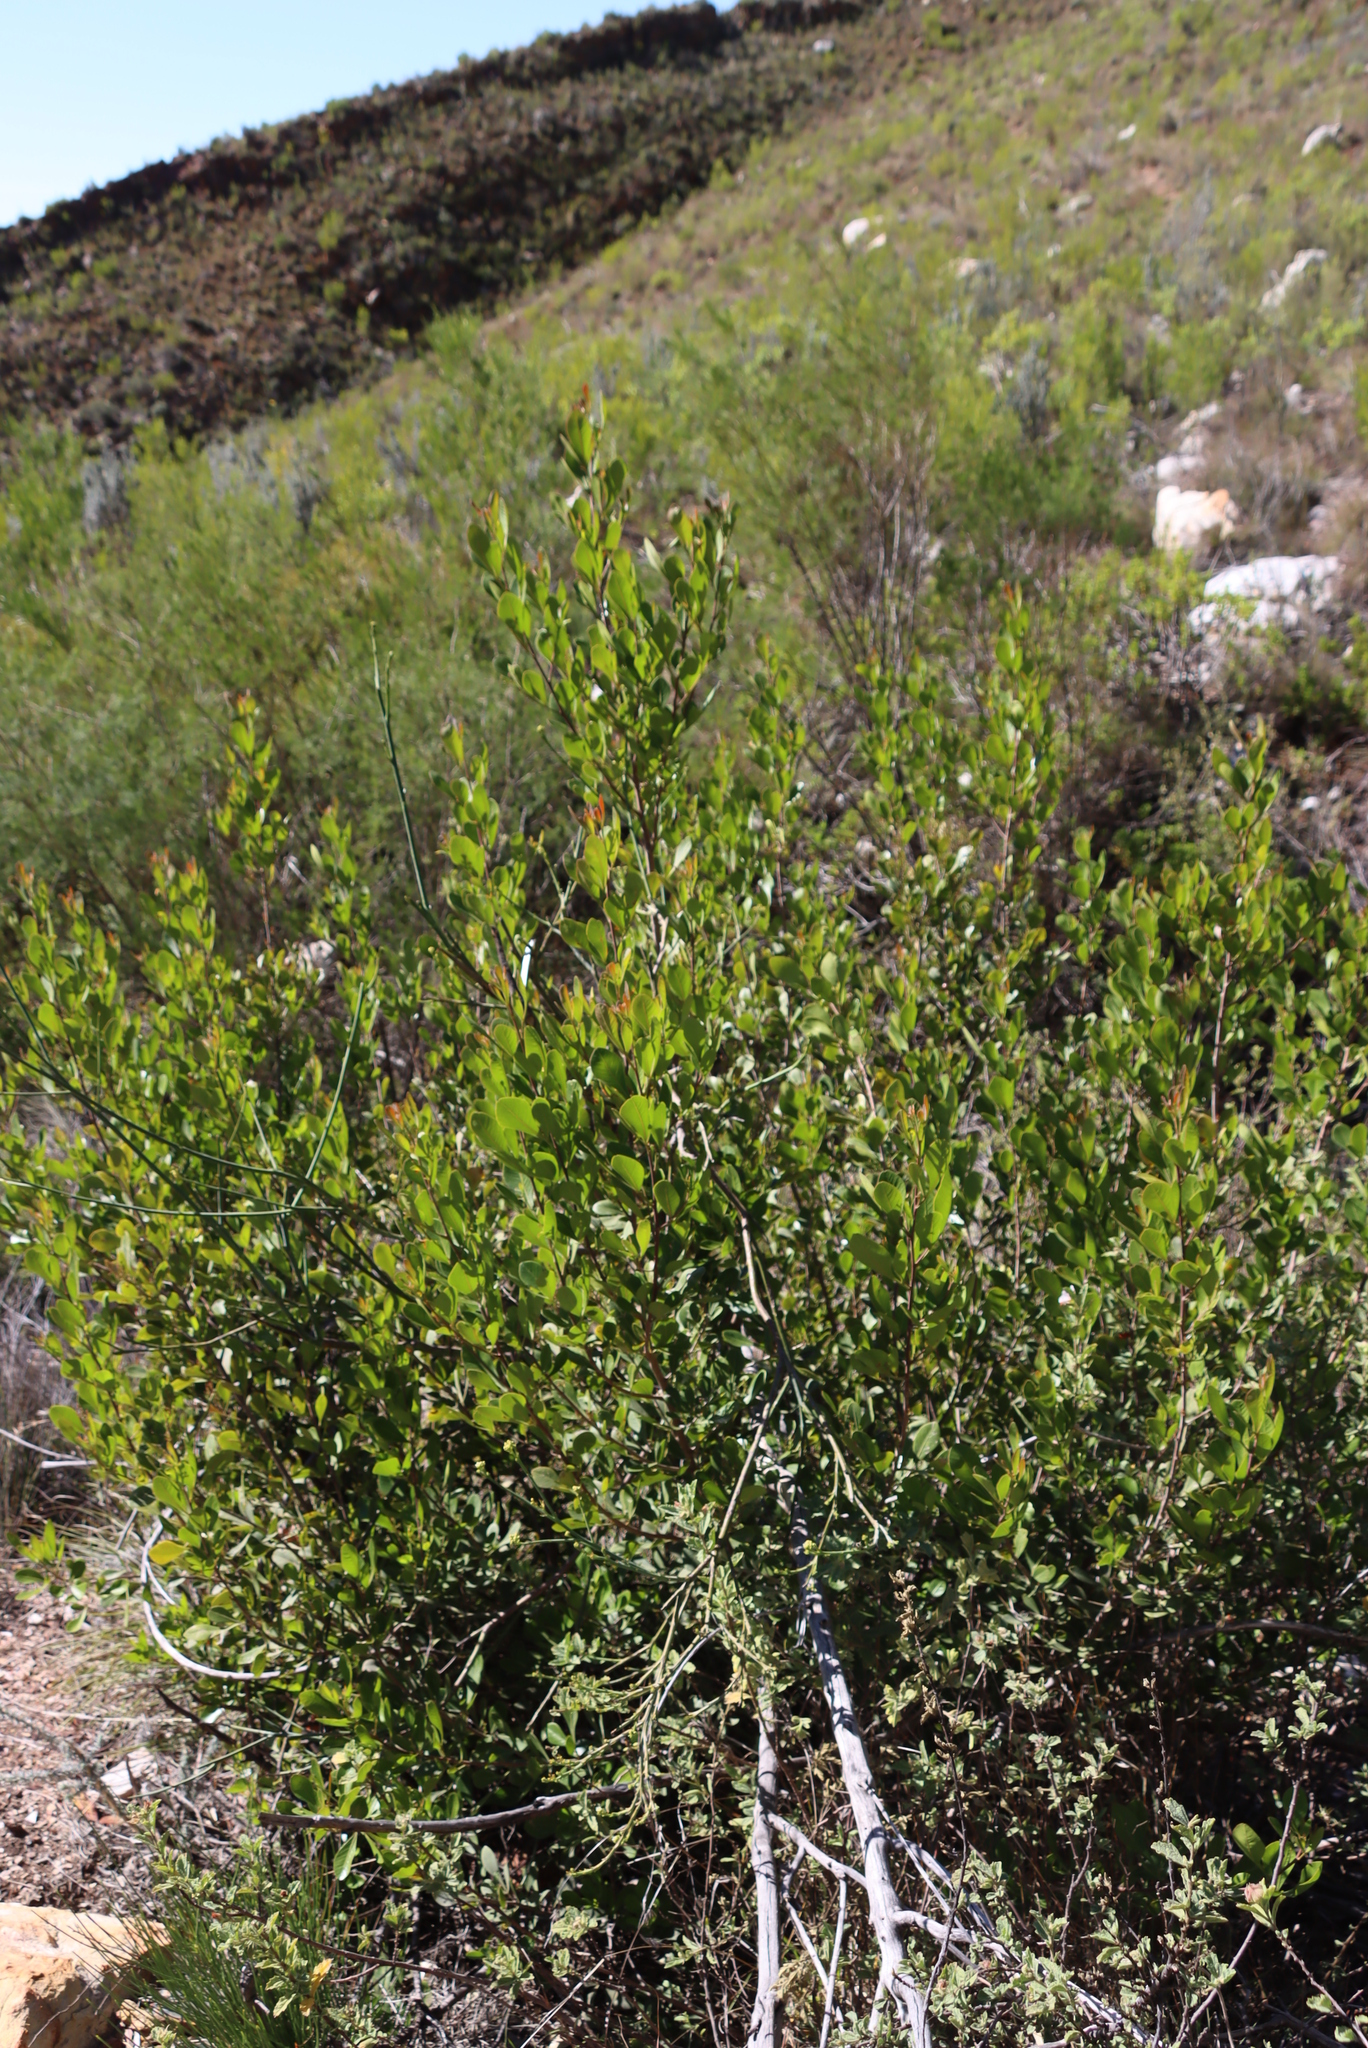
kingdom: Plantae
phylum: Tracheophyta
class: Magnoliopsida
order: Sapindales
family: Anacardiaceae
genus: Searsia
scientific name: Searsia lucida
